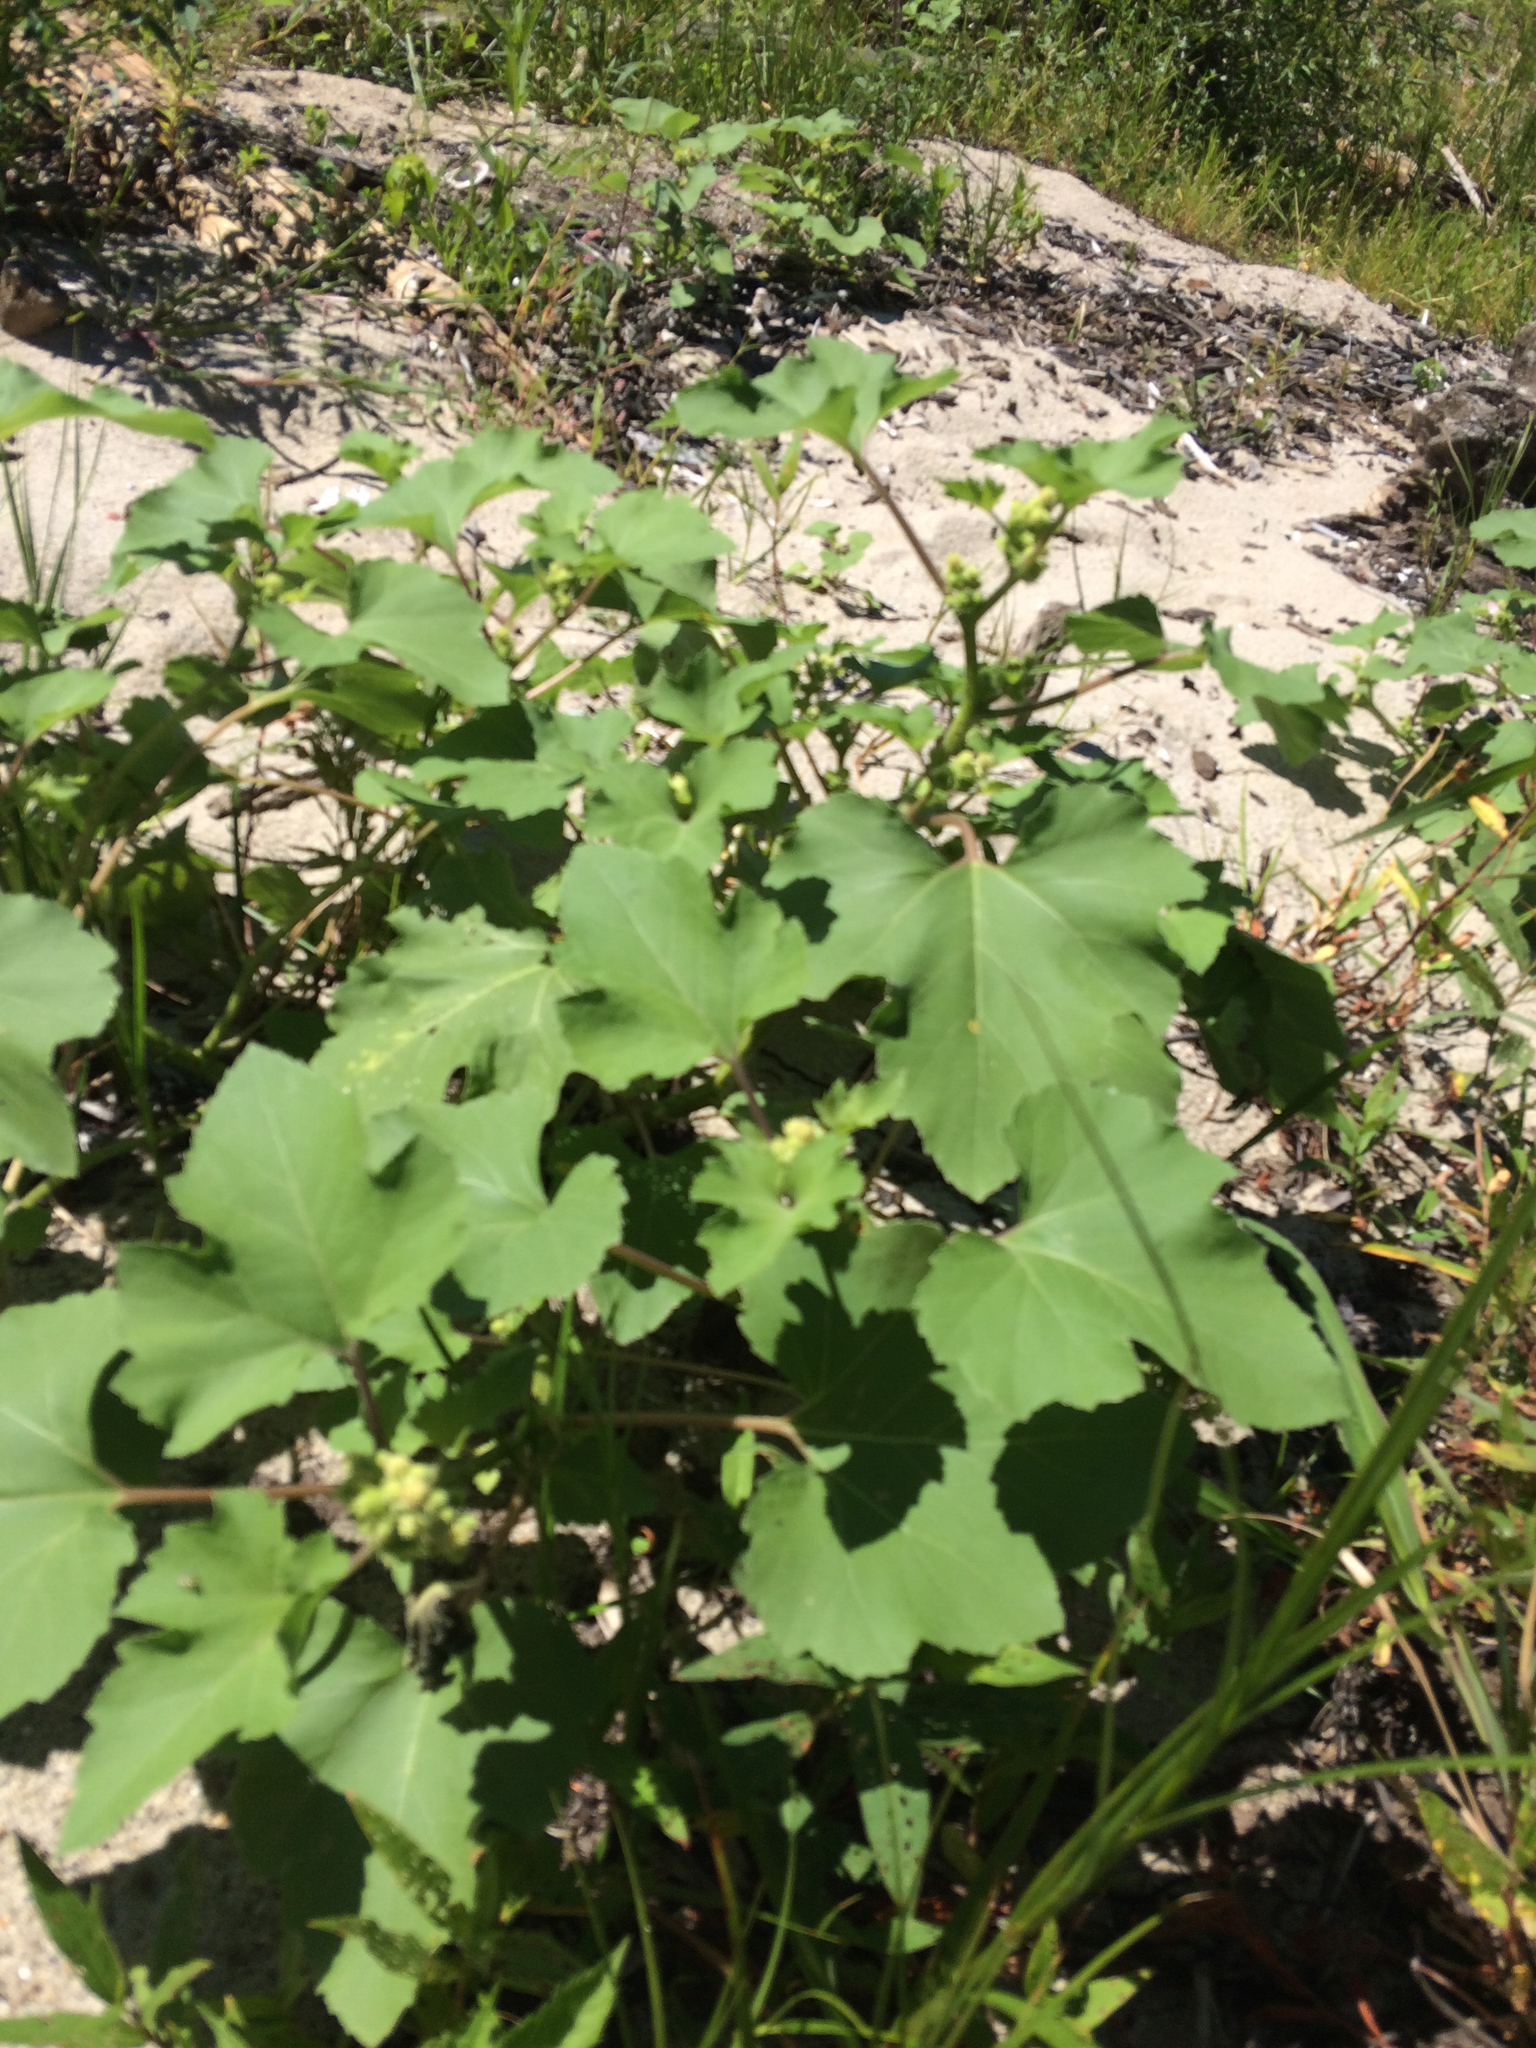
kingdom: Plantae
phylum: Tracheophyta
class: Magnoliopsida
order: Asterales
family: Asteraceae
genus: Xanthium
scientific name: Xanthium strumarium
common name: Rough cocklebur
